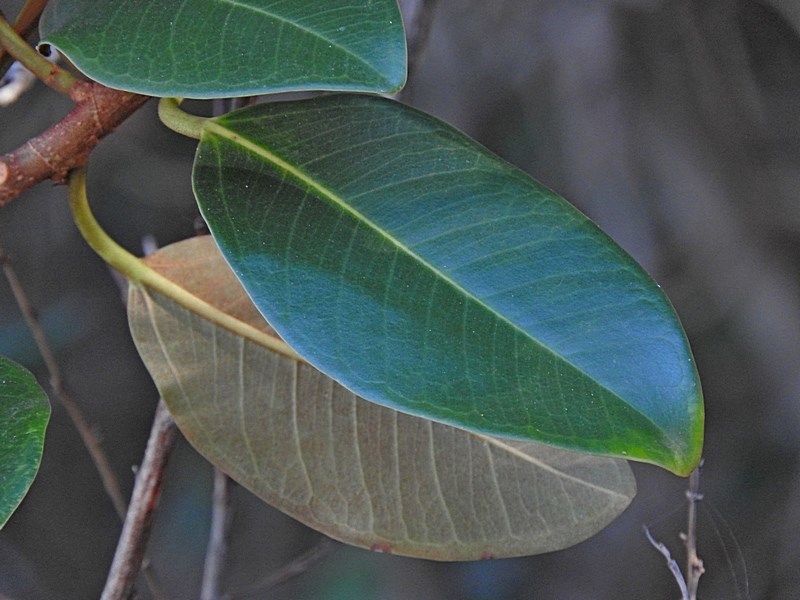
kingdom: Plantae
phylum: Tracheophyta
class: Magnoliopsida
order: Rosales
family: Moraceae
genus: Ficus
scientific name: Ficus rubiginosa
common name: Port jackson fig
